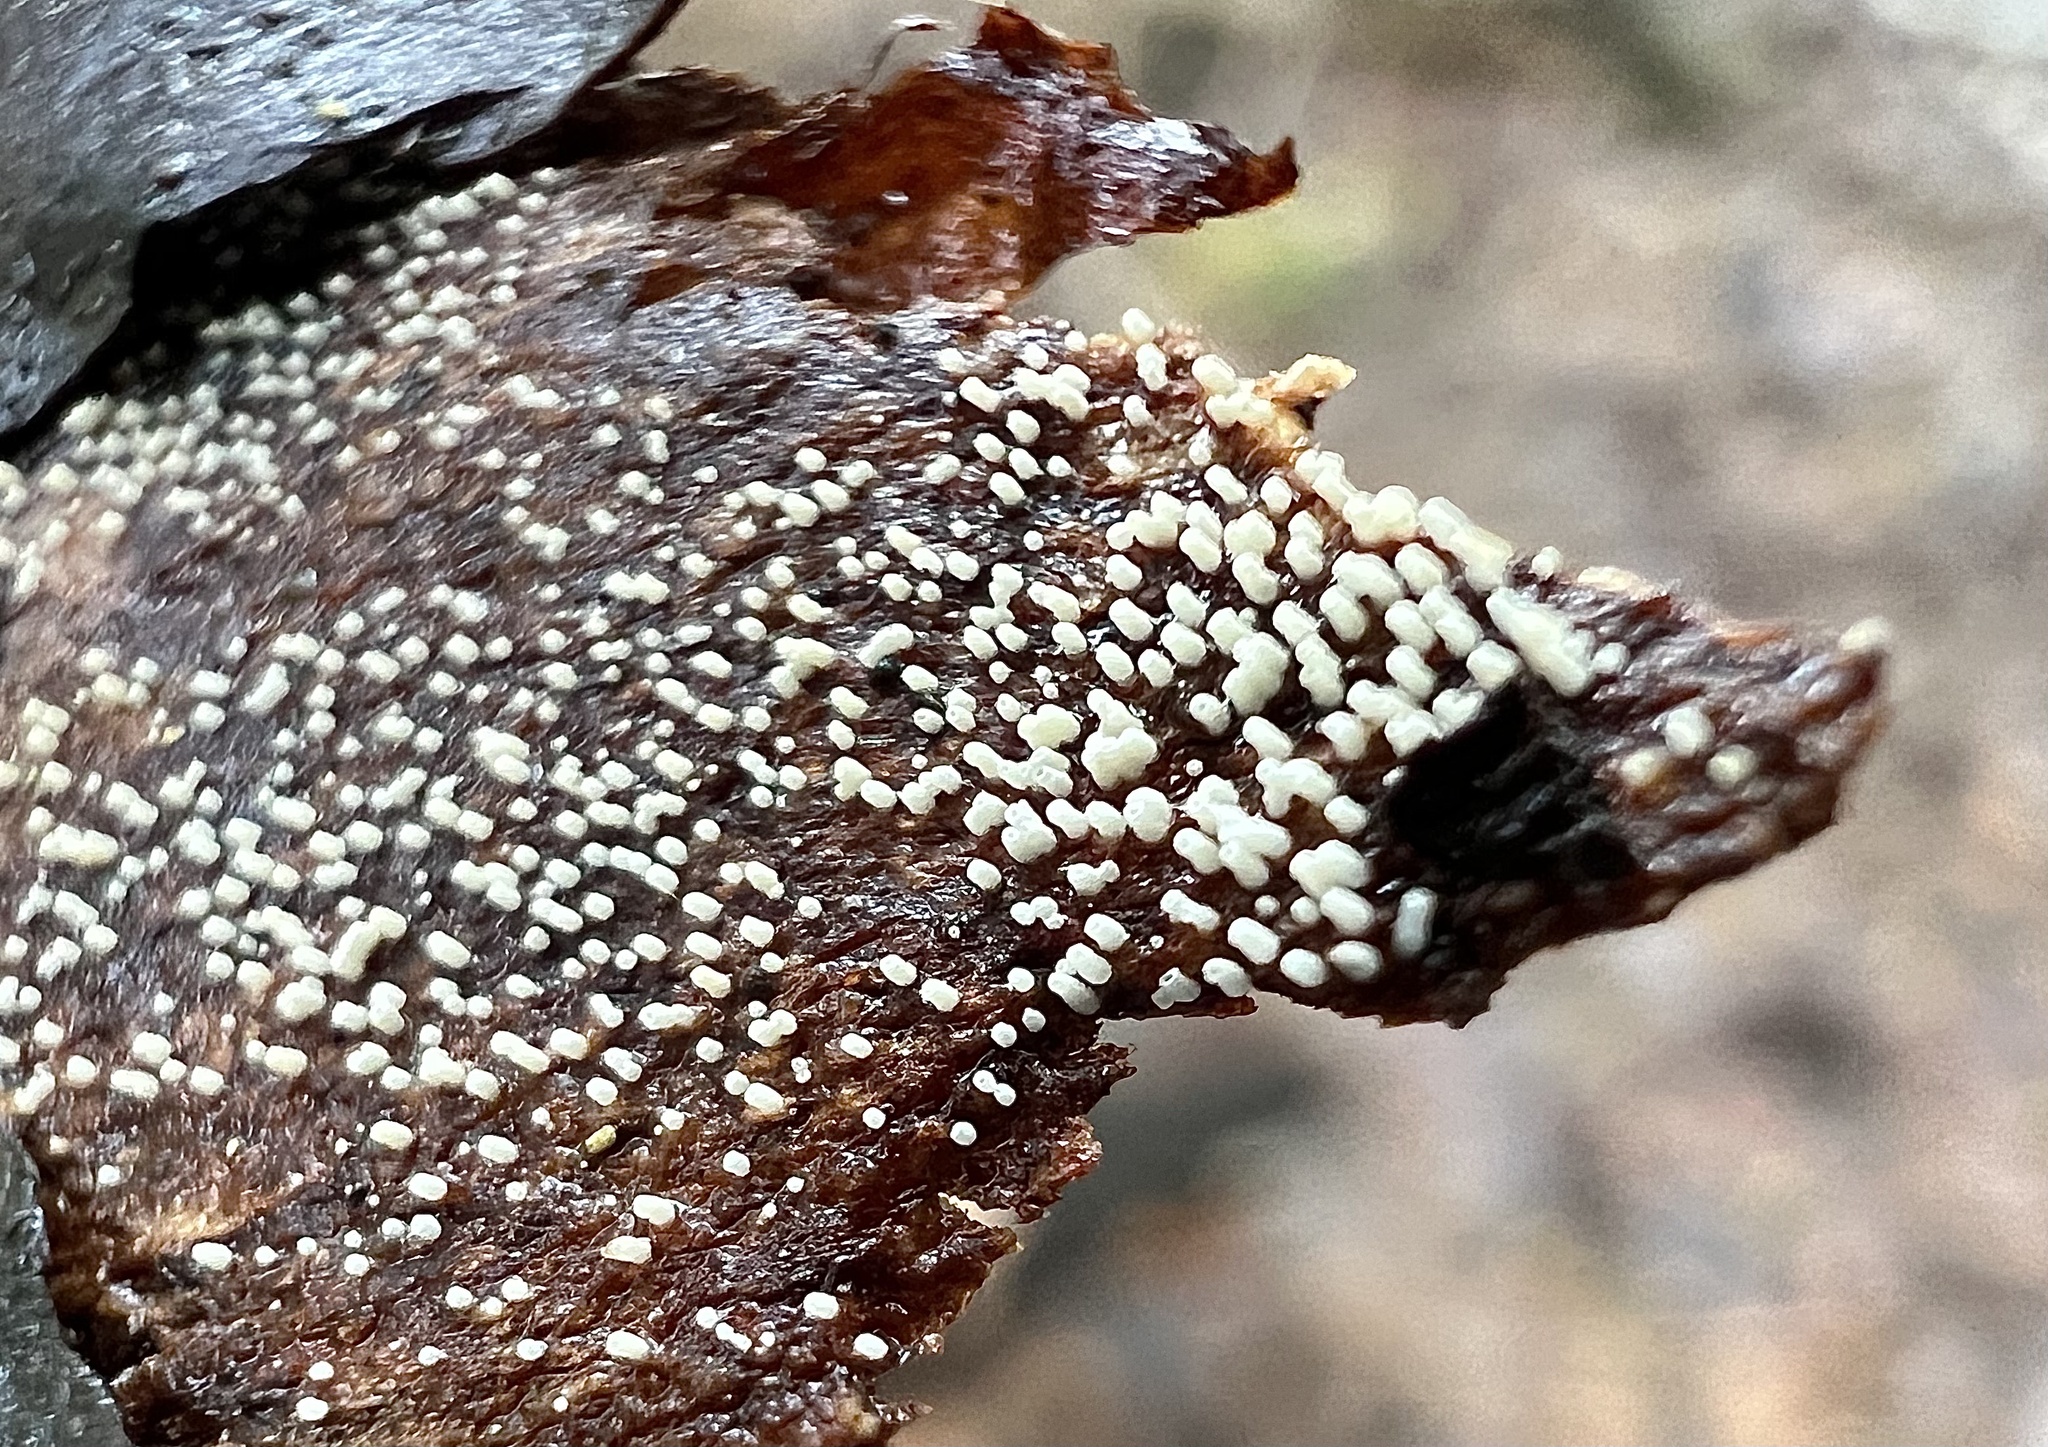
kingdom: Fungi
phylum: Basidiomycota
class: Agaricomycetes
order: Agaricales
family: Marasmiaceae
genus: Henningsomyces
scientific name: Henningsomyces candidus
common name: White tubelet
